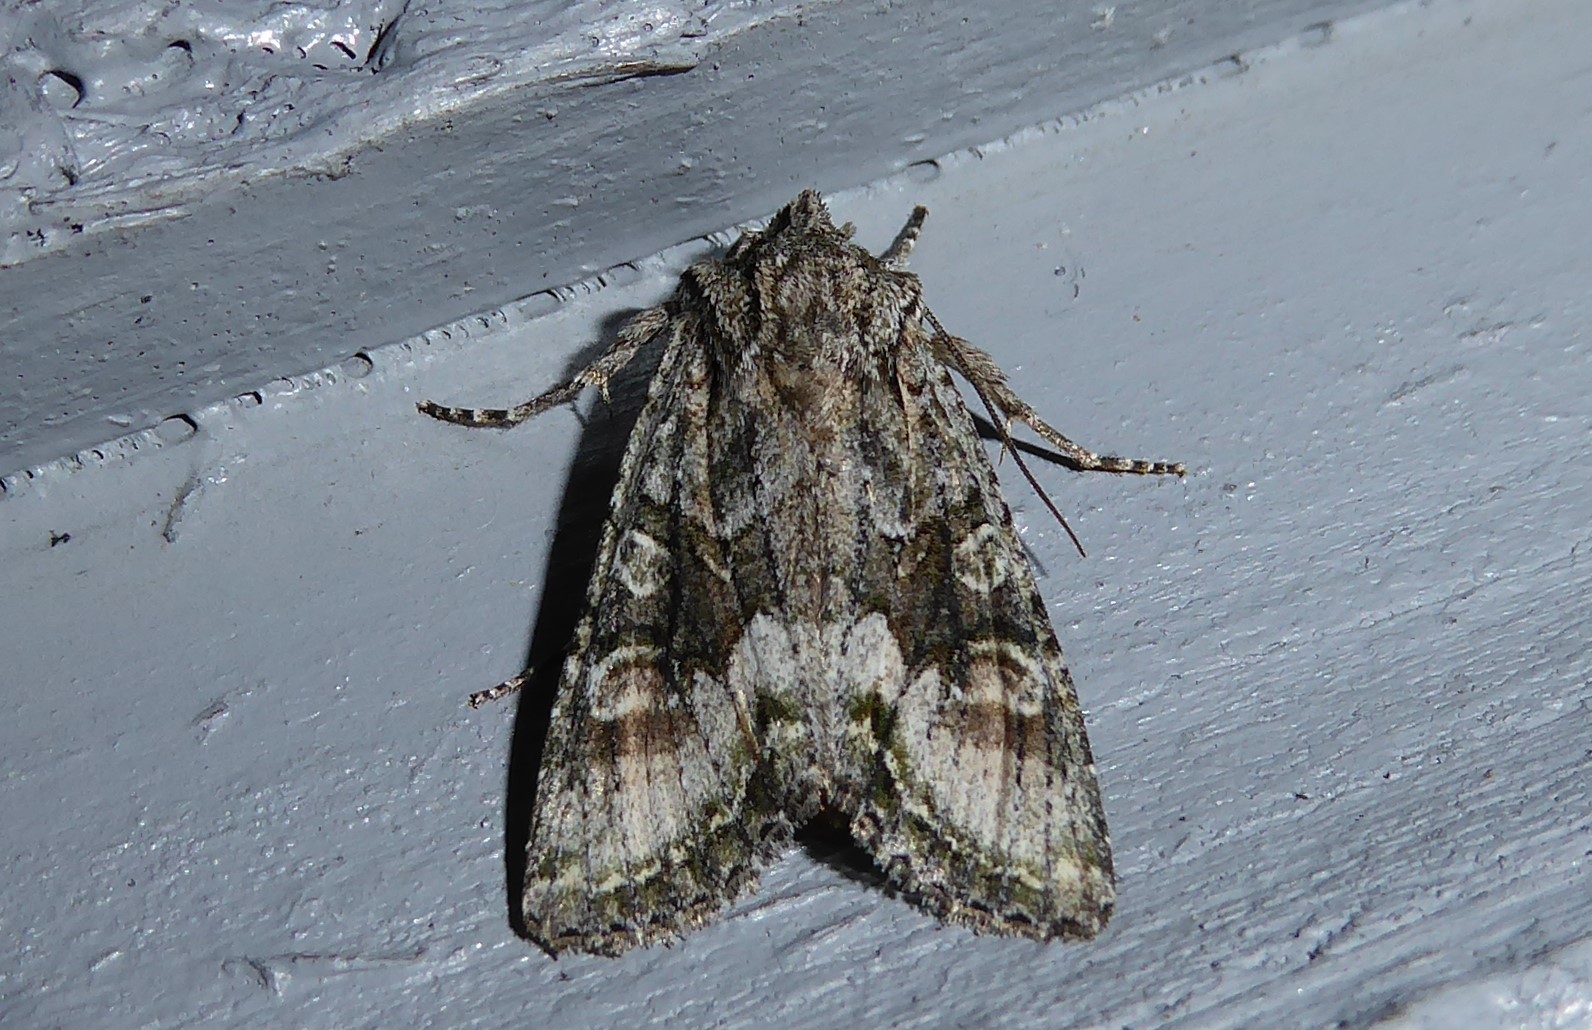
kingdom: Animalia
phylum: Arthropoda
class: Insecta
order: Lepidoptera
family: Noctuidae
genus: Ichneutica
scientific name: Ichneutica mutans
